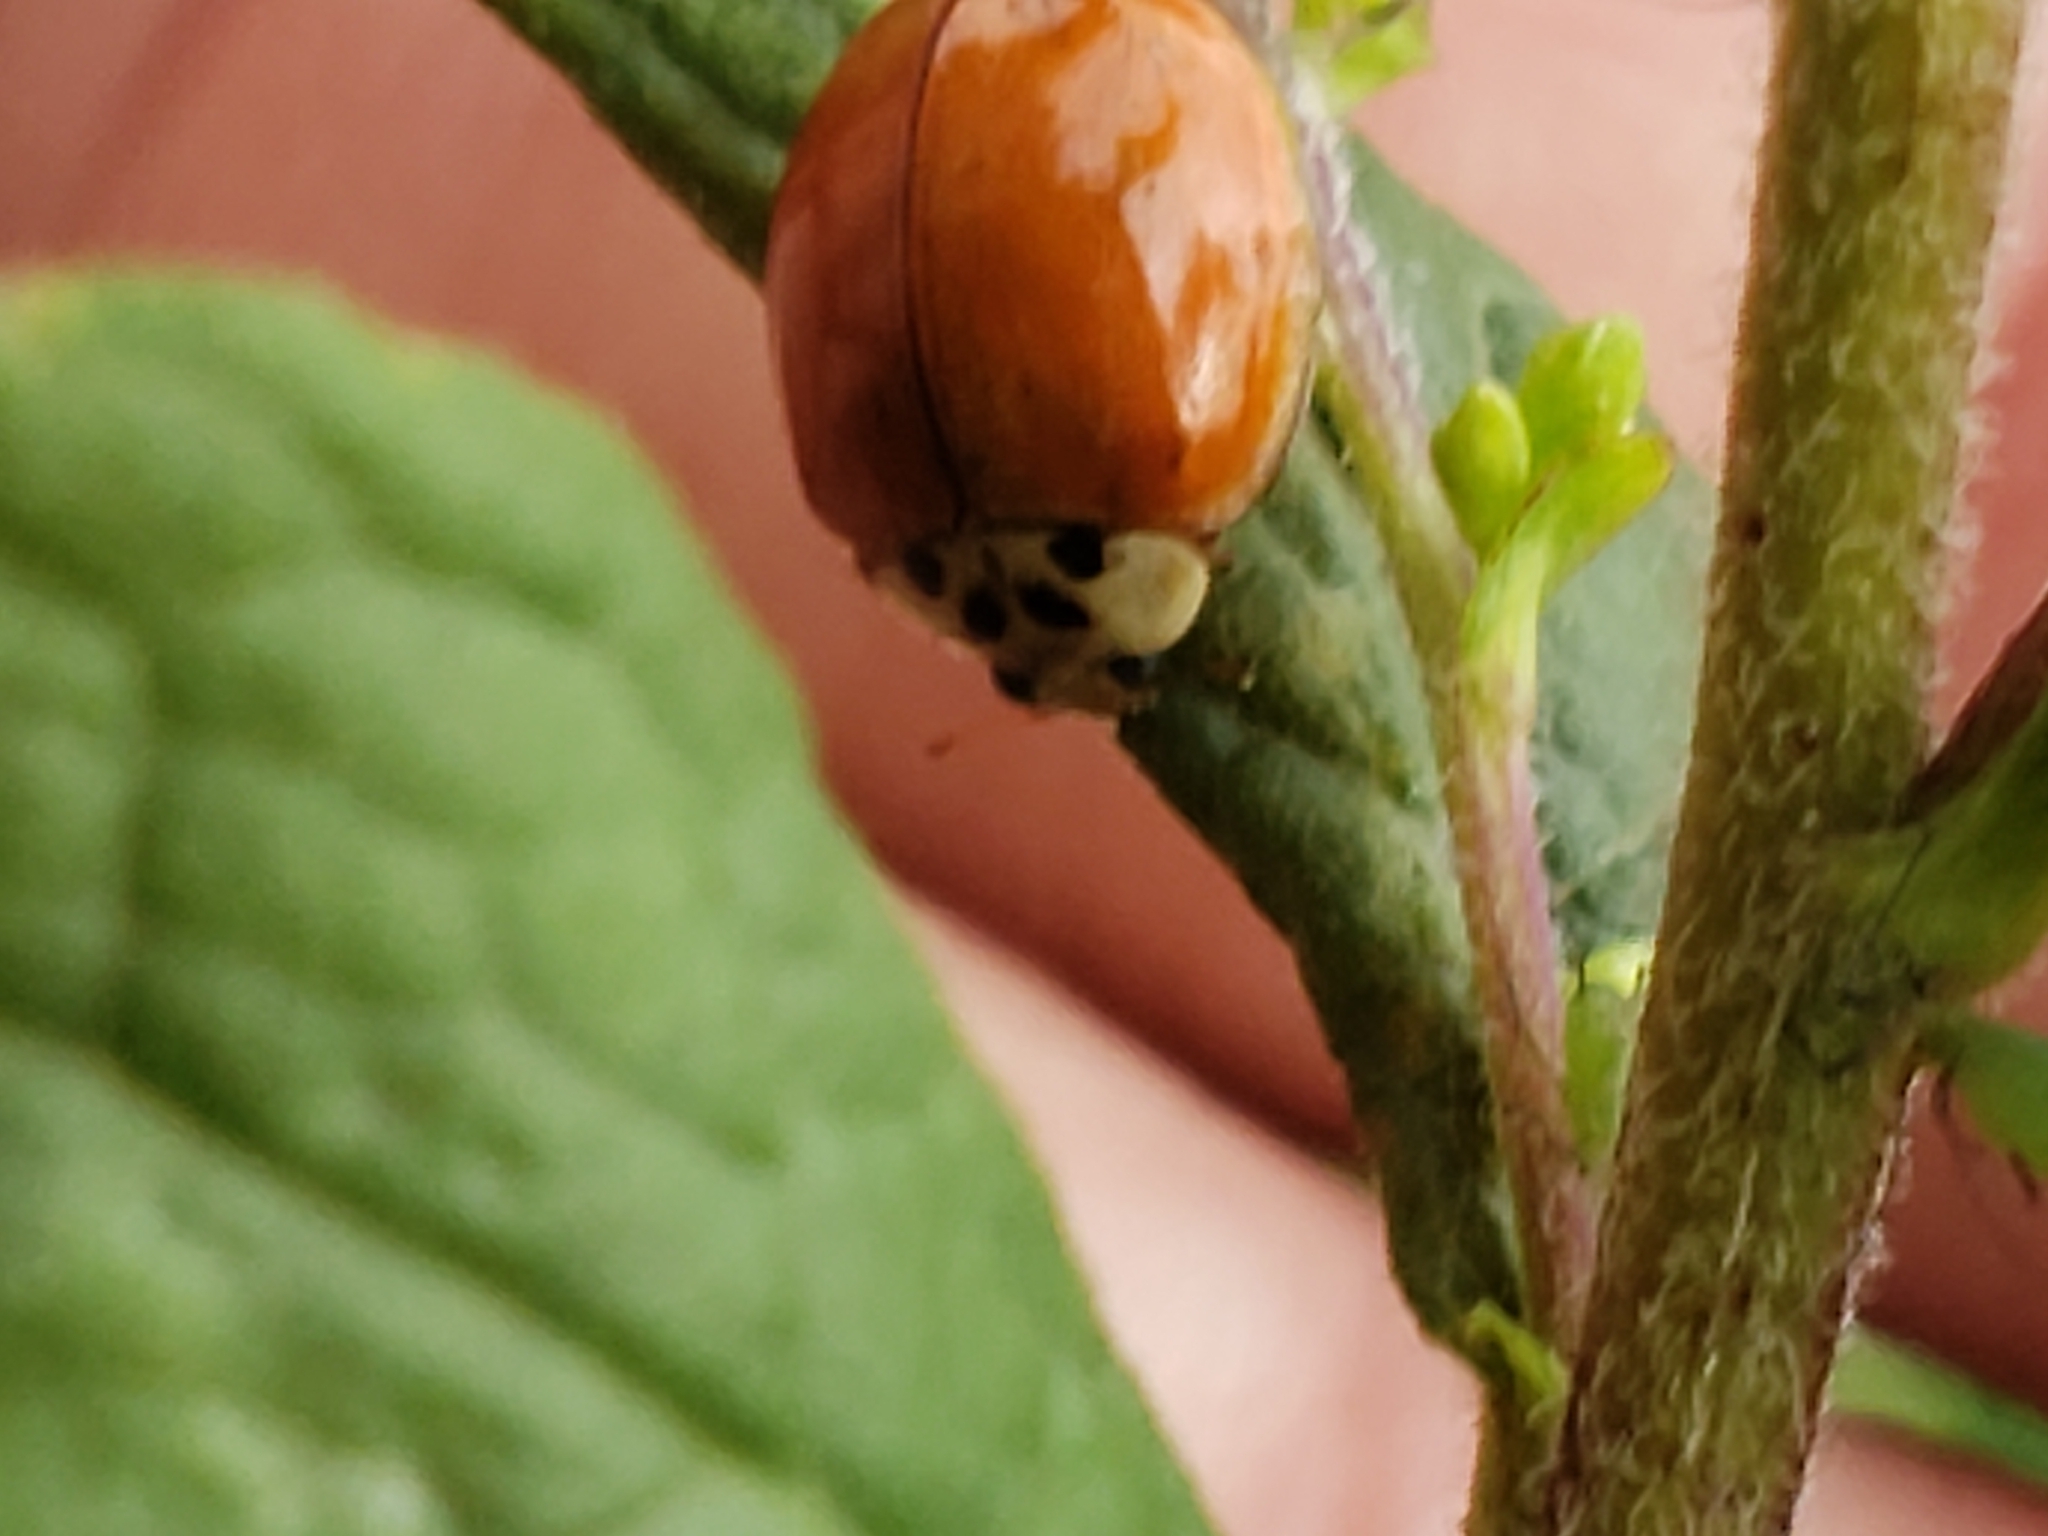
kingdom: Animalia
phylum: Arthropoda
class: Insecta
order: Coleoptera
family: Coccinellidae
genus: Harmonia
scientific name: Harmonia axyridis
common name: Harlequin ladybird
